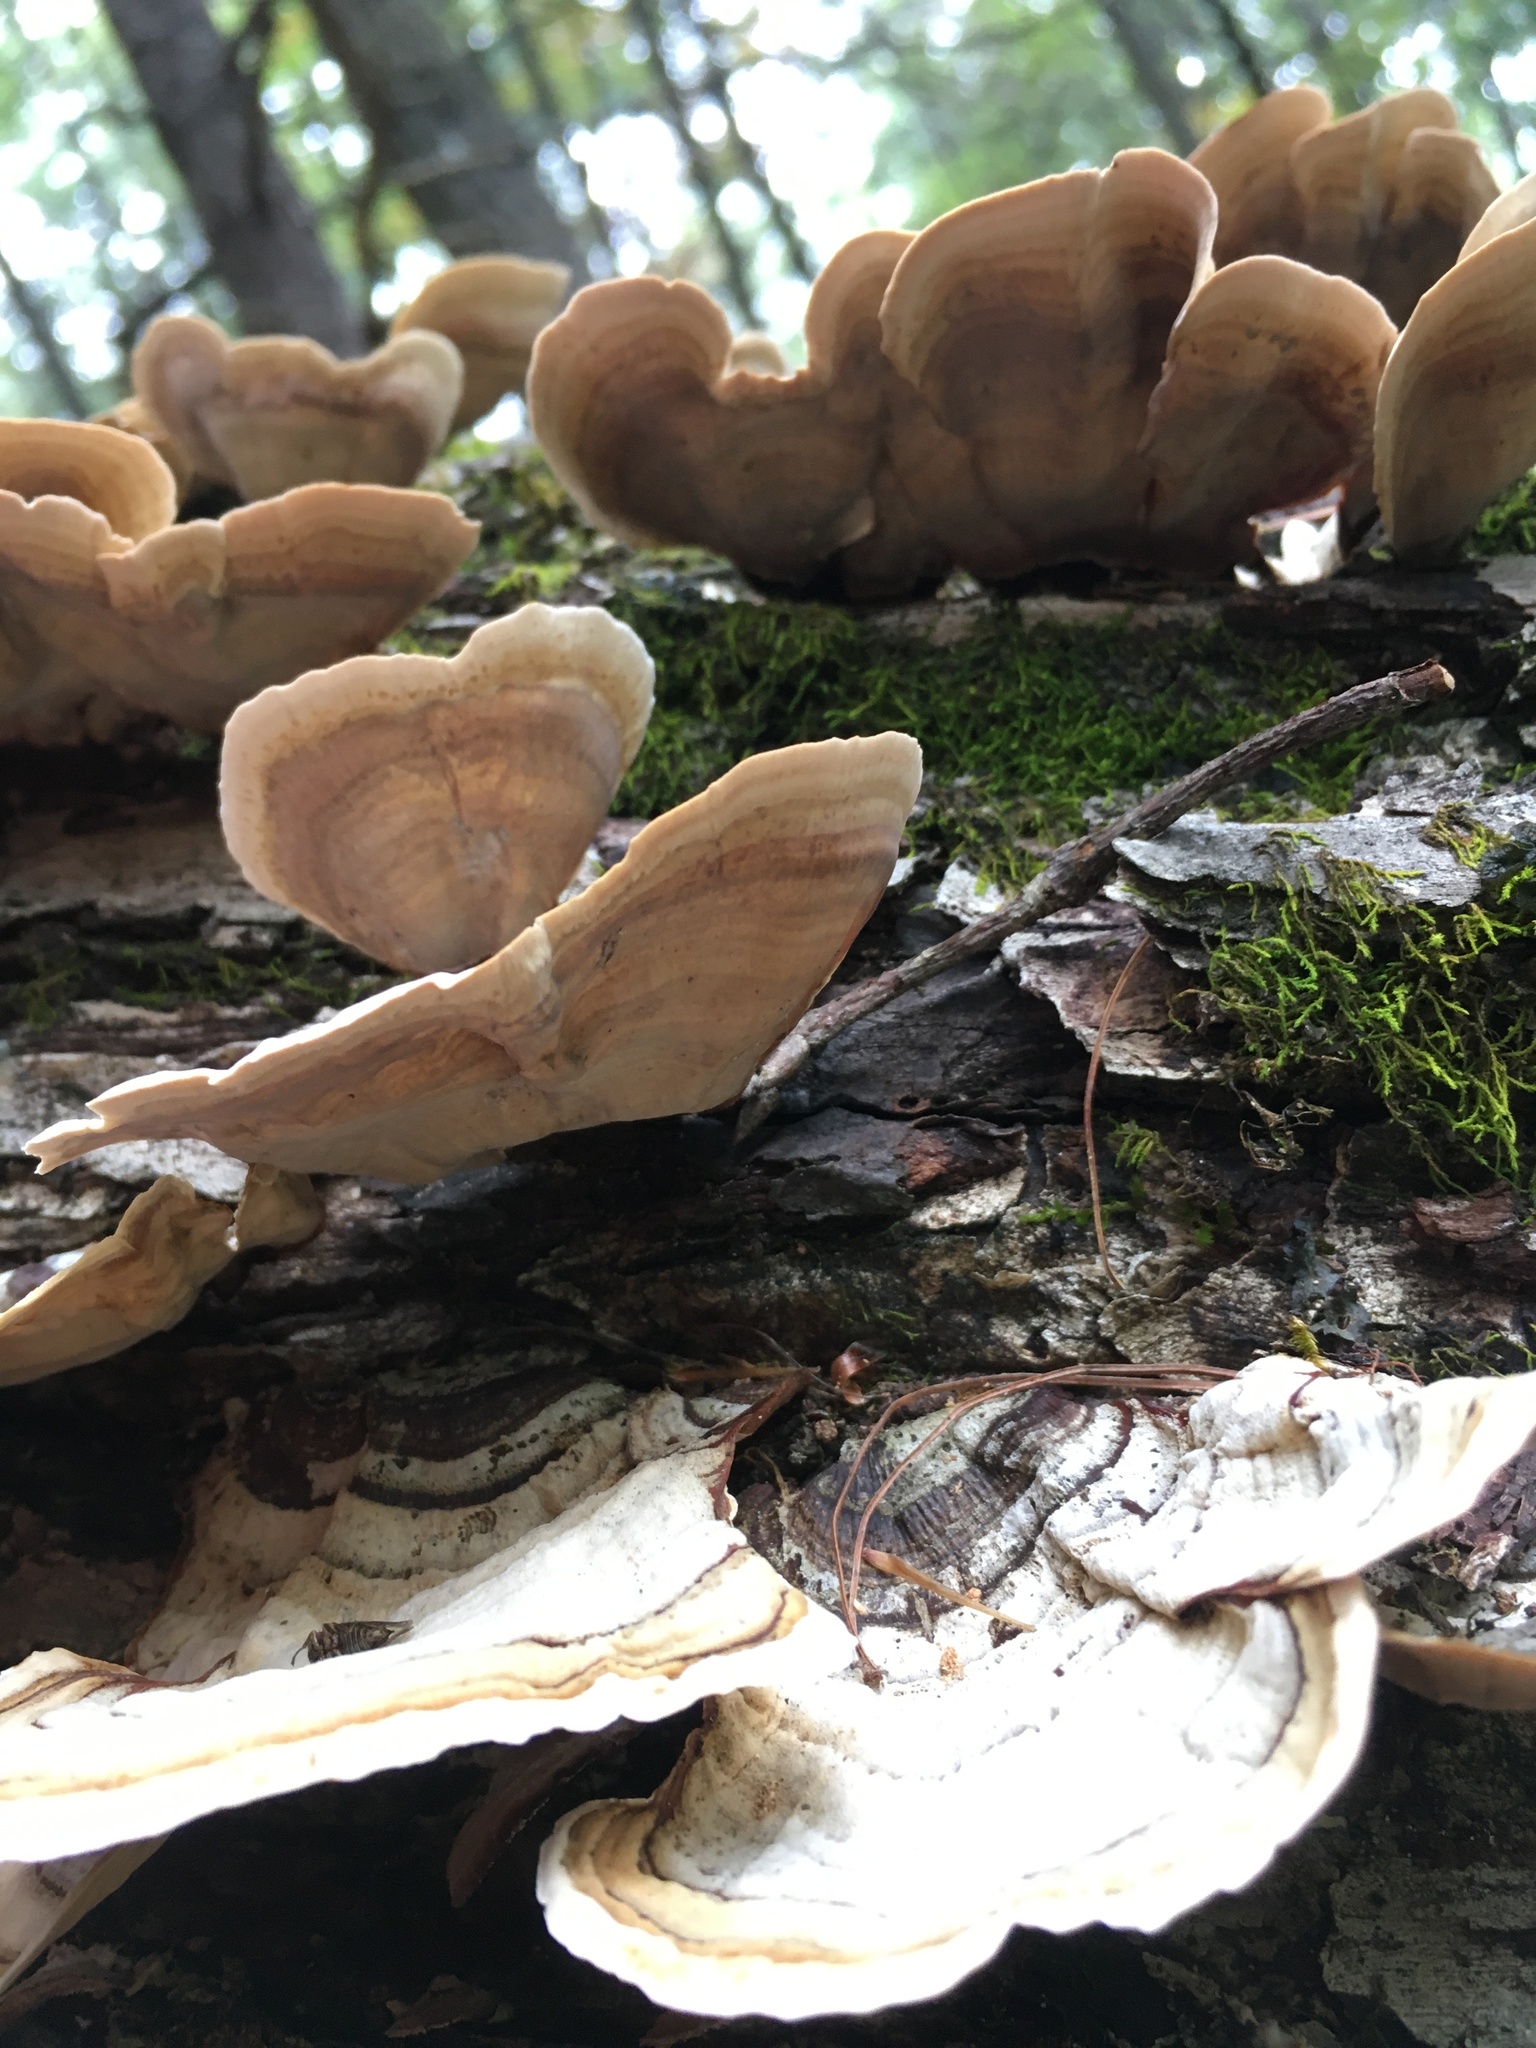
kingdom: Fungi
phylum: Basidiomycota
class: Agaricomycetes
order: Russulales
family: Stereaceae
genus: Stereum
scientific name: Stereum lobatum
